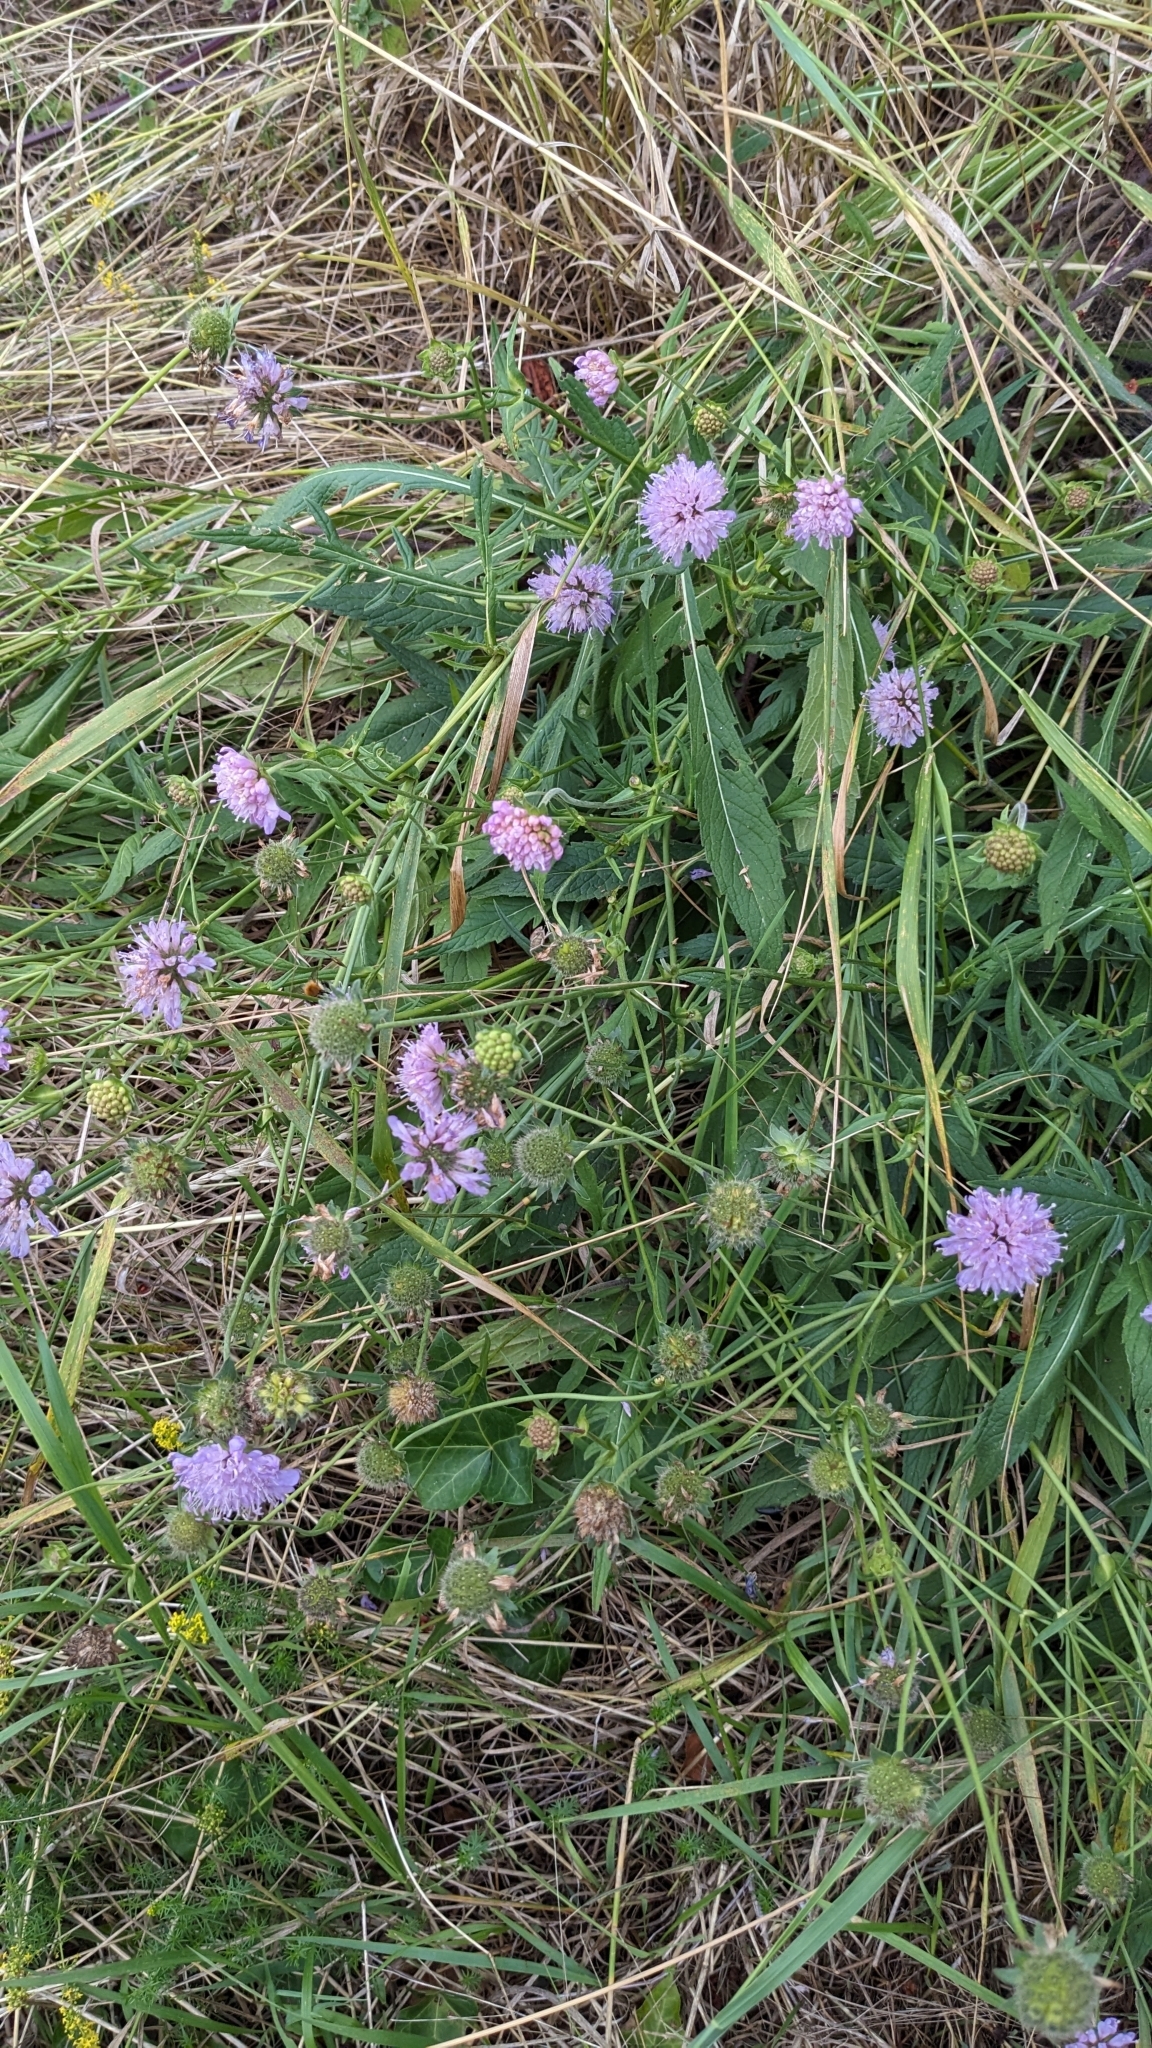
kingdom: Plantae
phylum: Tracheophyta
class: Magnoliopsida
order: Dipsacales
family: Caprifoliaceae
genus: Knautia
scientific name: Knautia arvensis
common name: Field scabiosa
